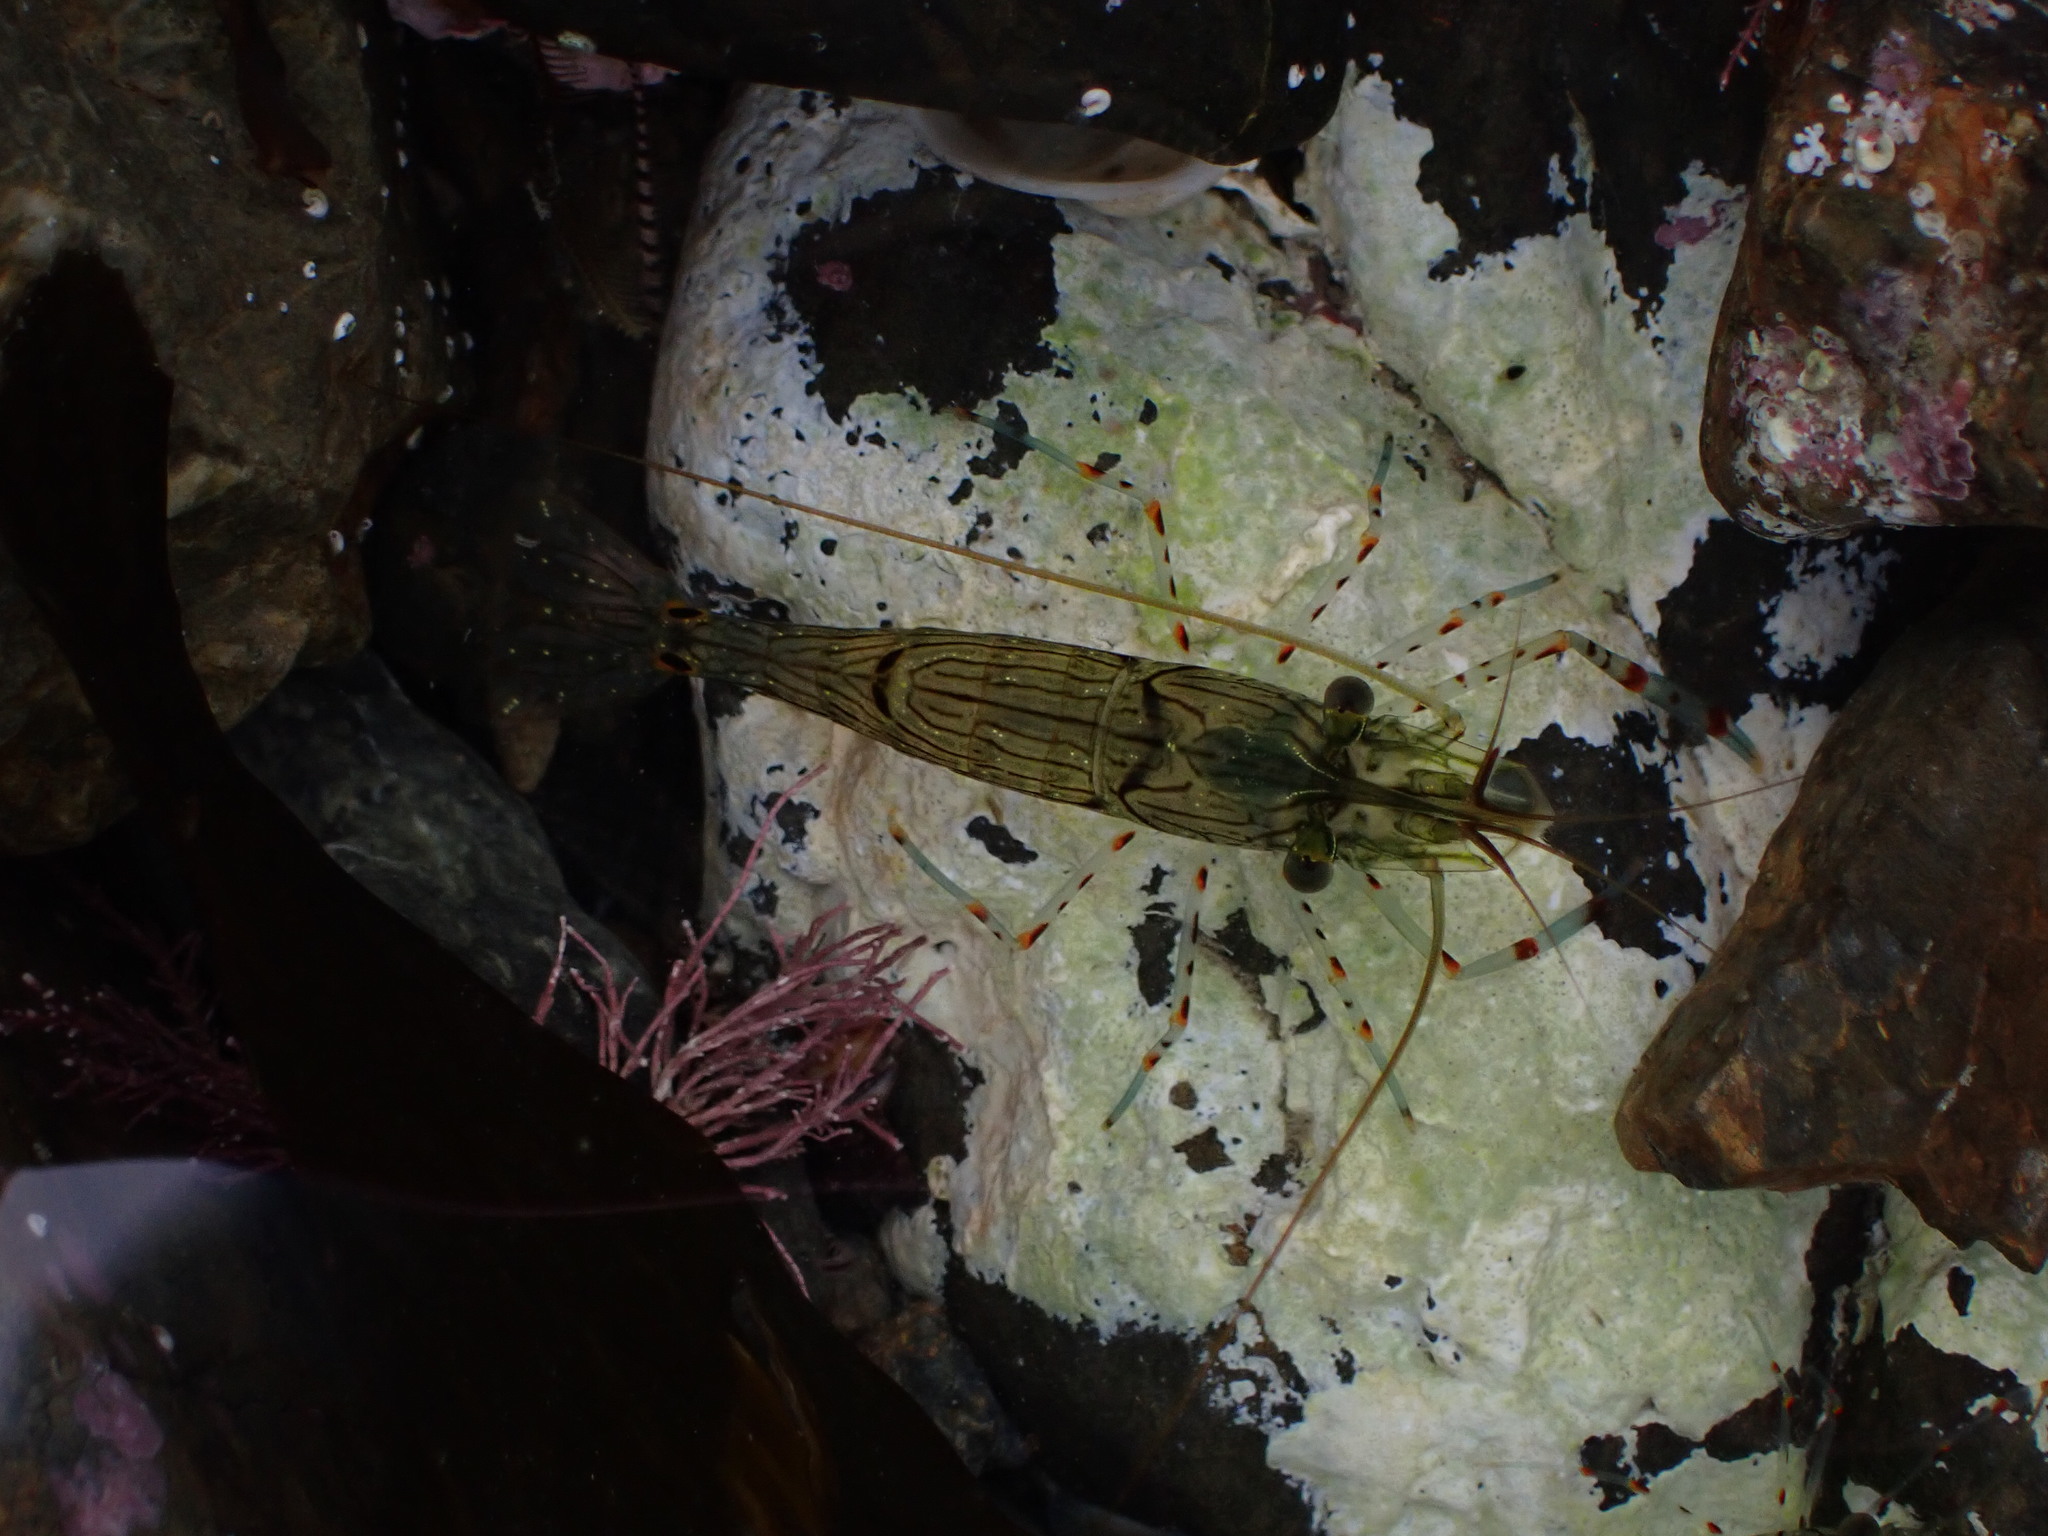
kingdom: Animalia
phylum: Arthropoda
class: Malacostraca
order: Decapoda
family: Palaemonidae
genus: Palaemon
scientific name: Palaemon affinis
